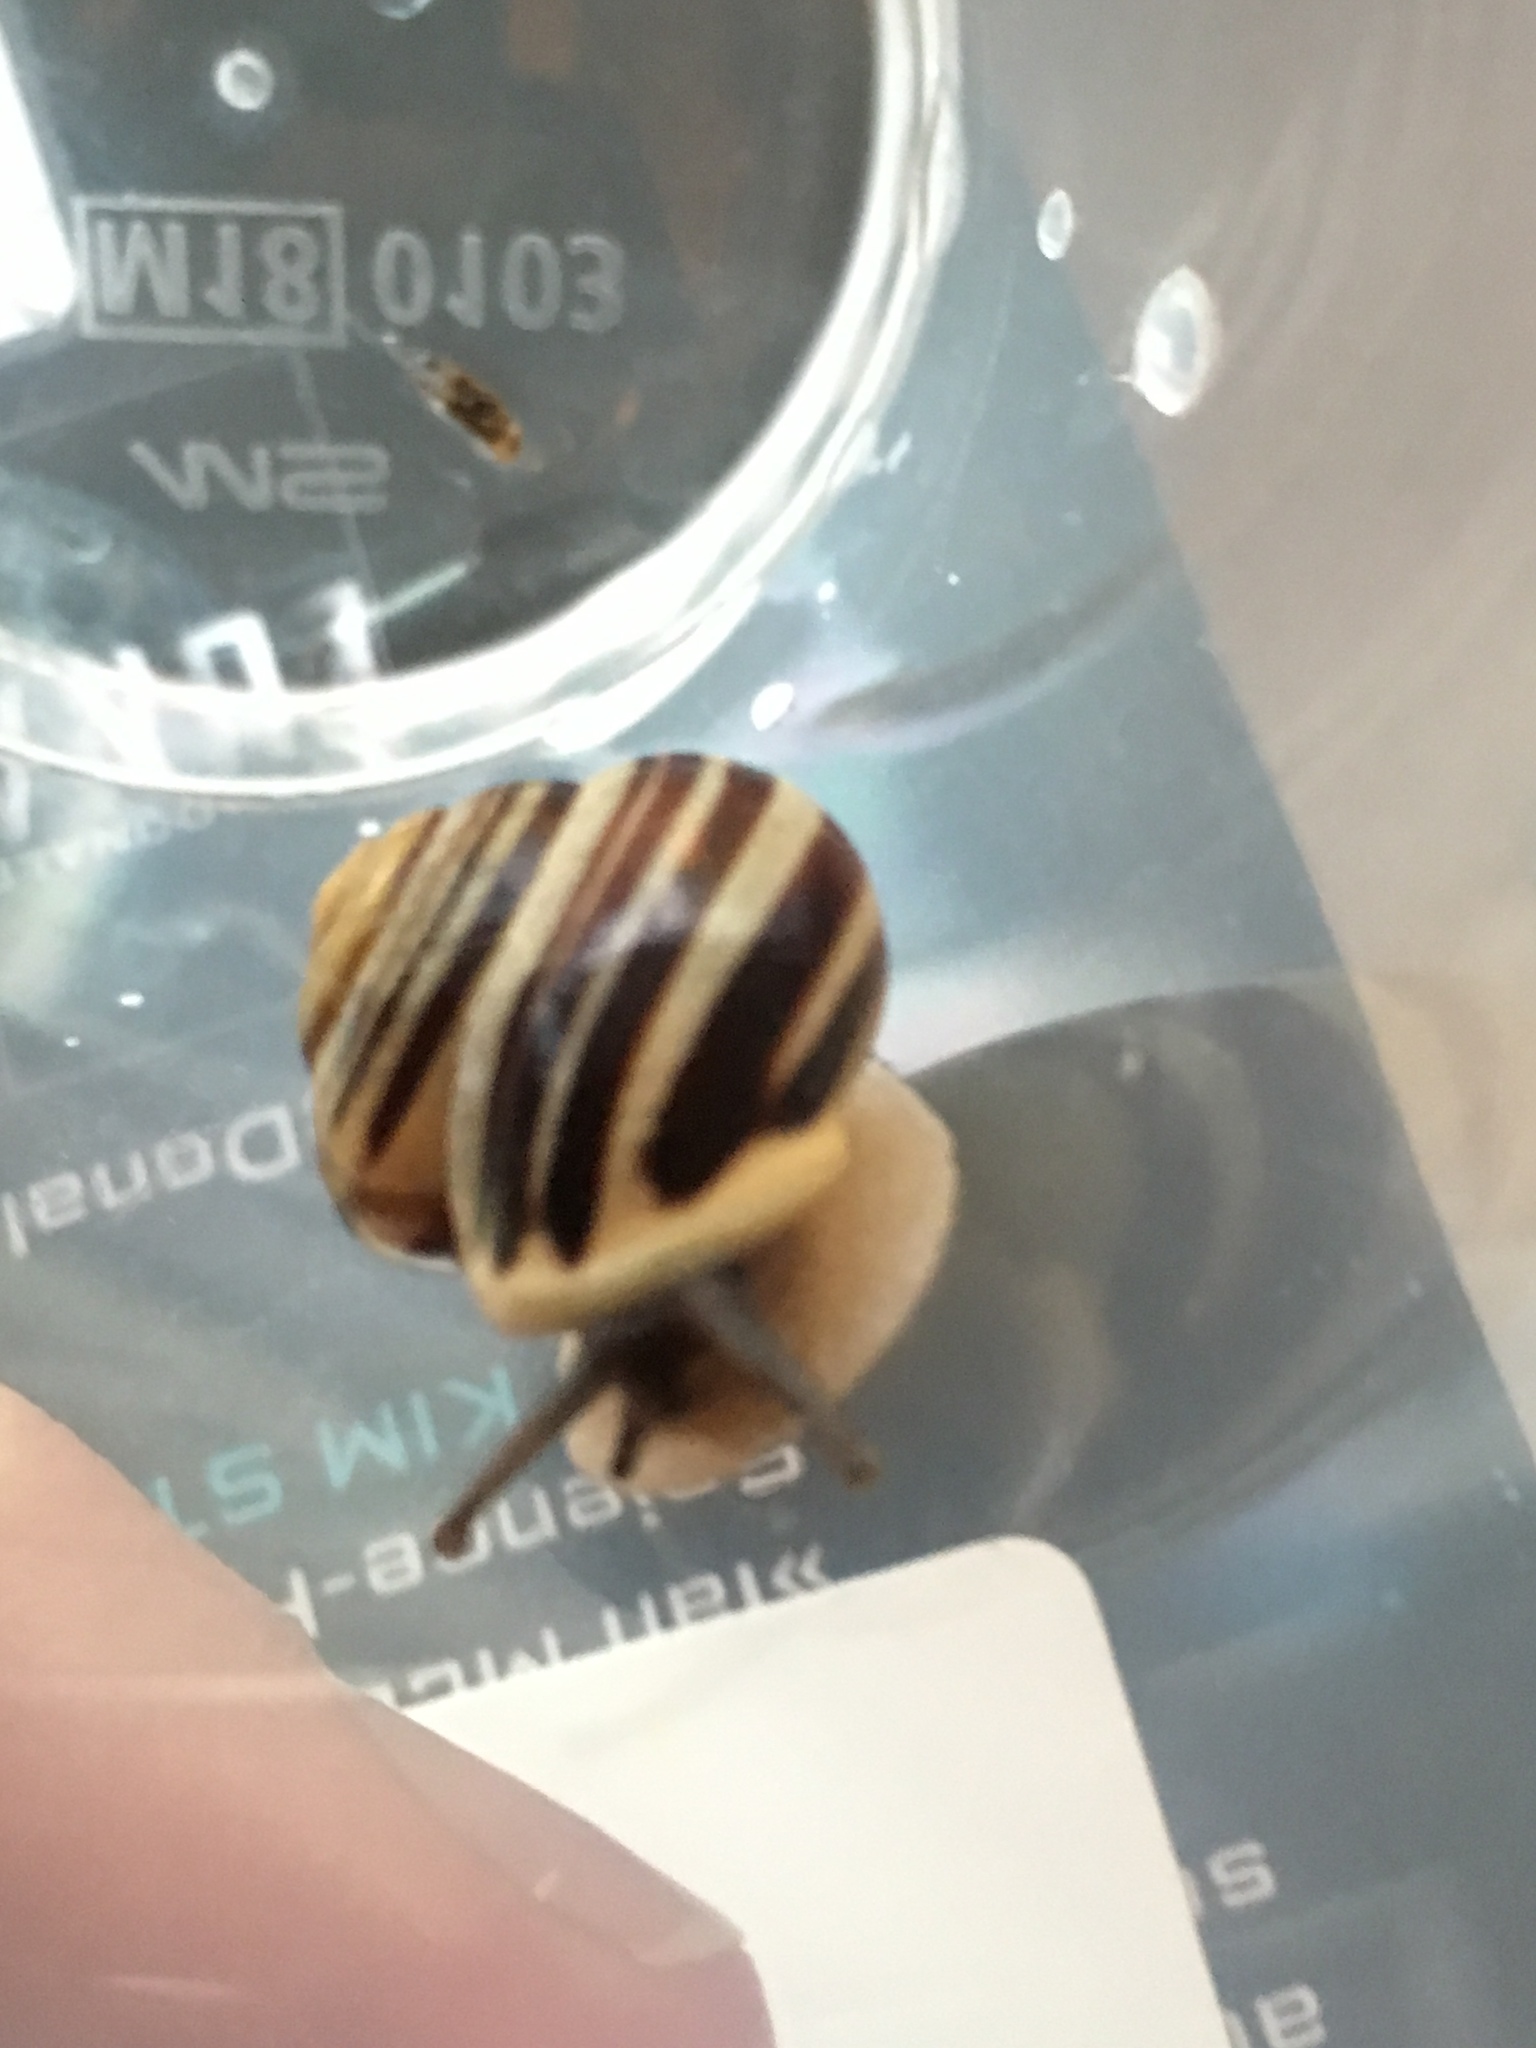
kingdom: Animalia
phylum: Mollusca
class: Gastropoda
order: Stylommatophora
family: Helicidae
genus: Cepaea
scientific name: Cepaea hortensis
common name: White-lip gardensnail
